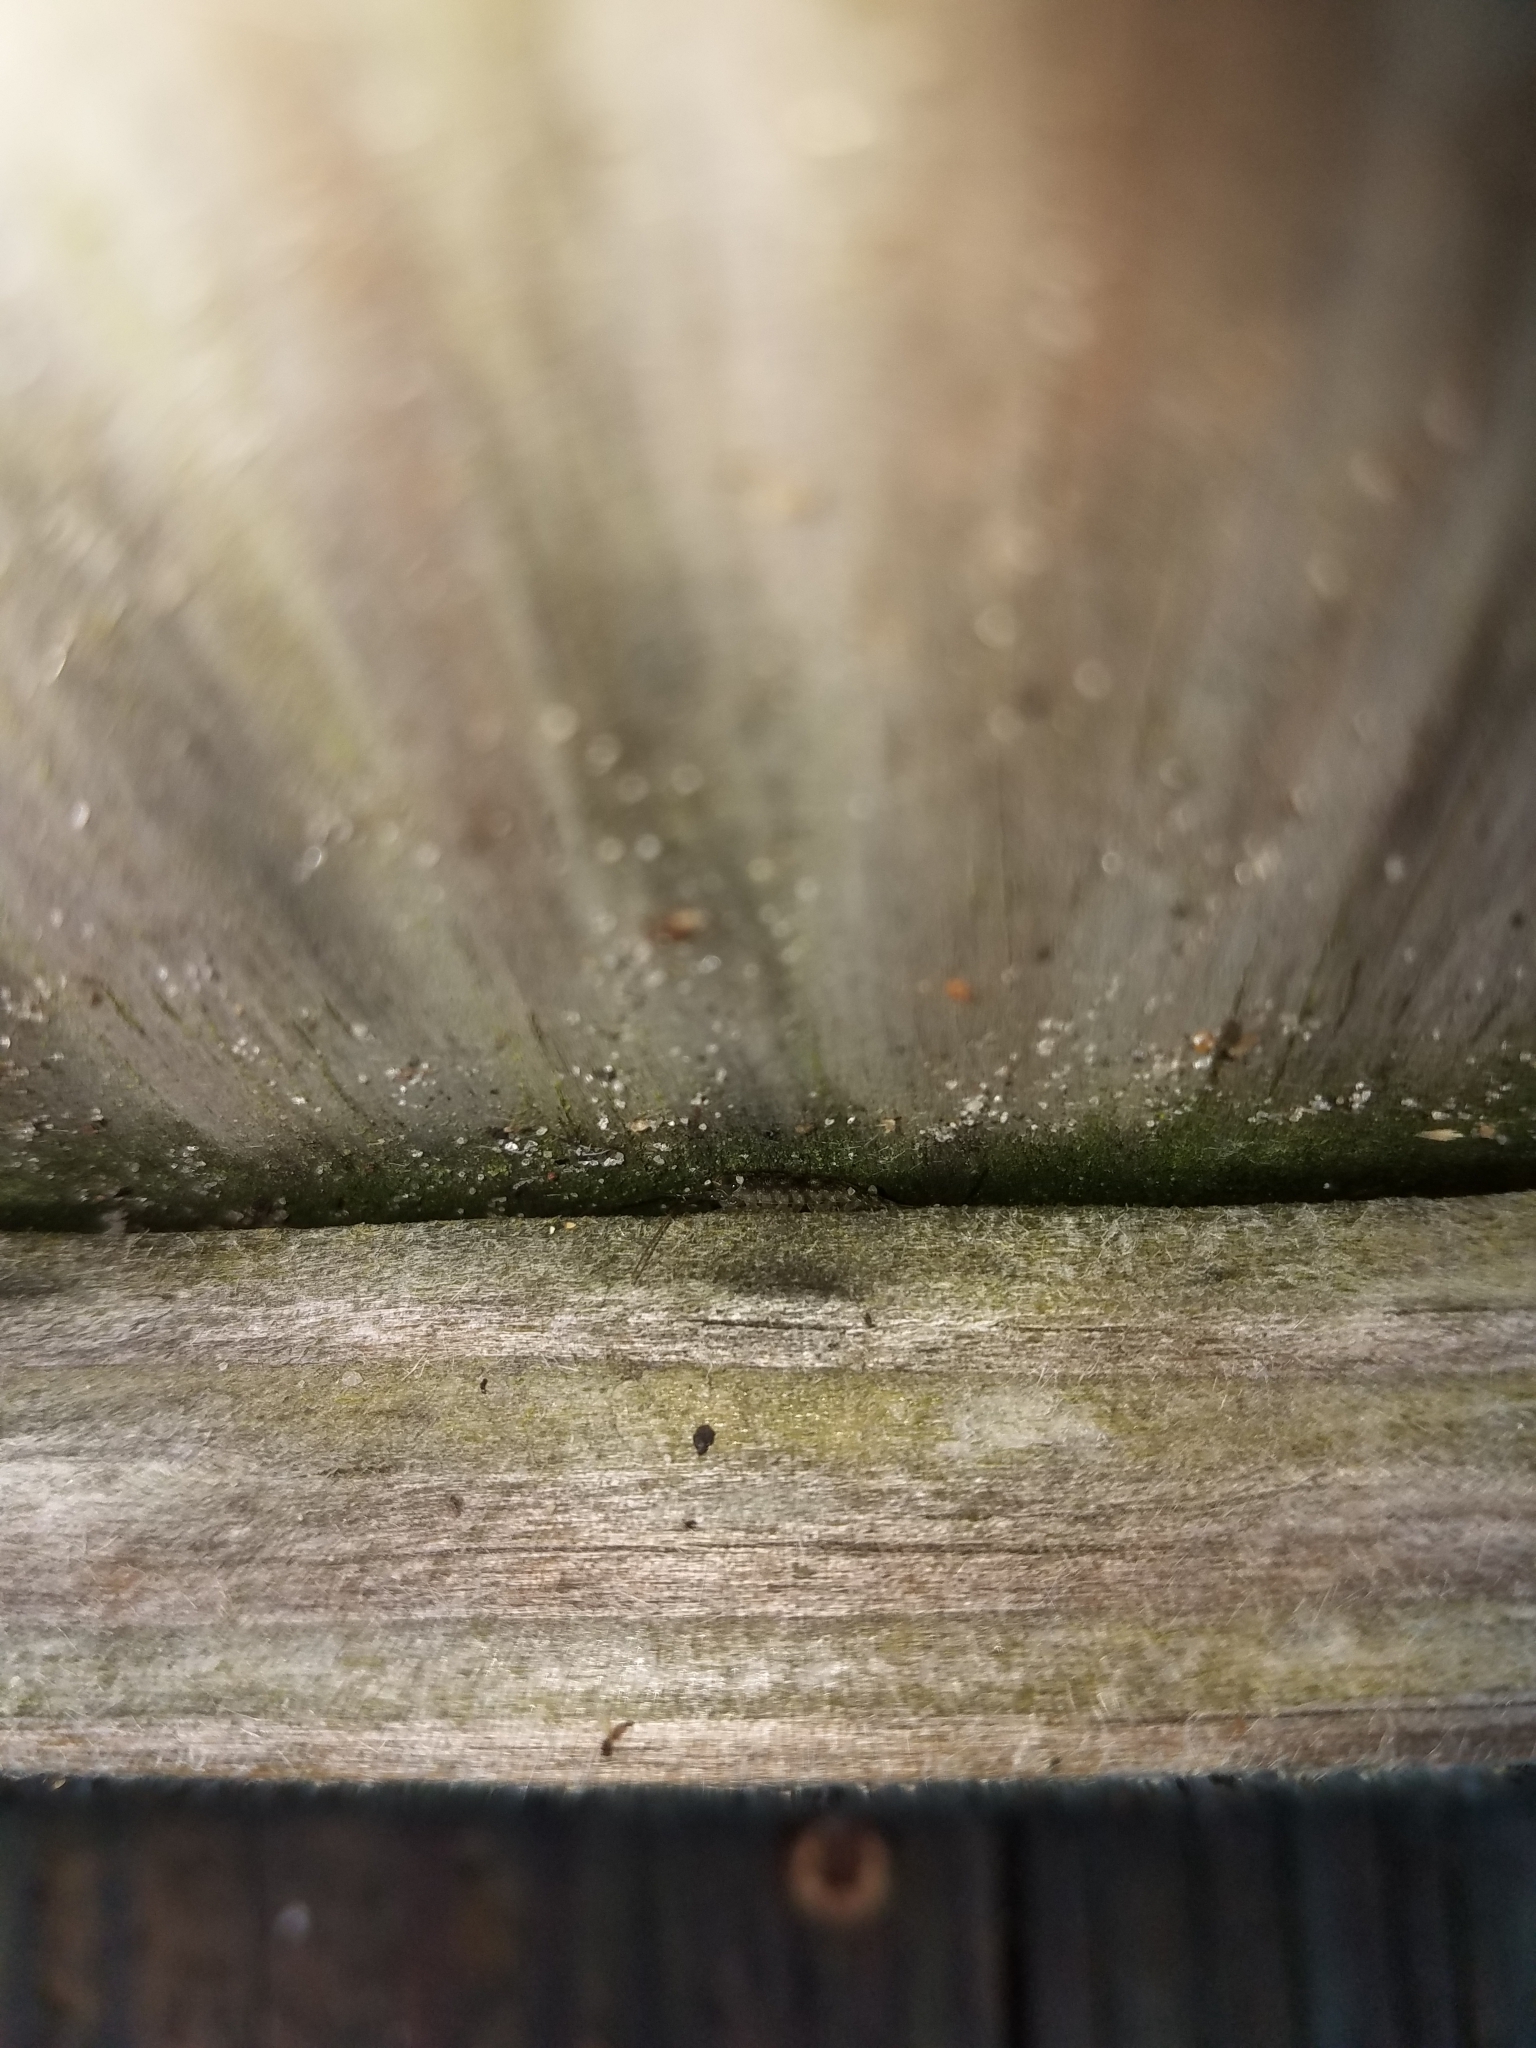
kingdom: Animalia
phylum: Arthropoda
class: Malacostraca
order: Isopoda
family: Ligiidae
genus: Ligia
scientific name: Ligia exotica
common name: Wharf roach
